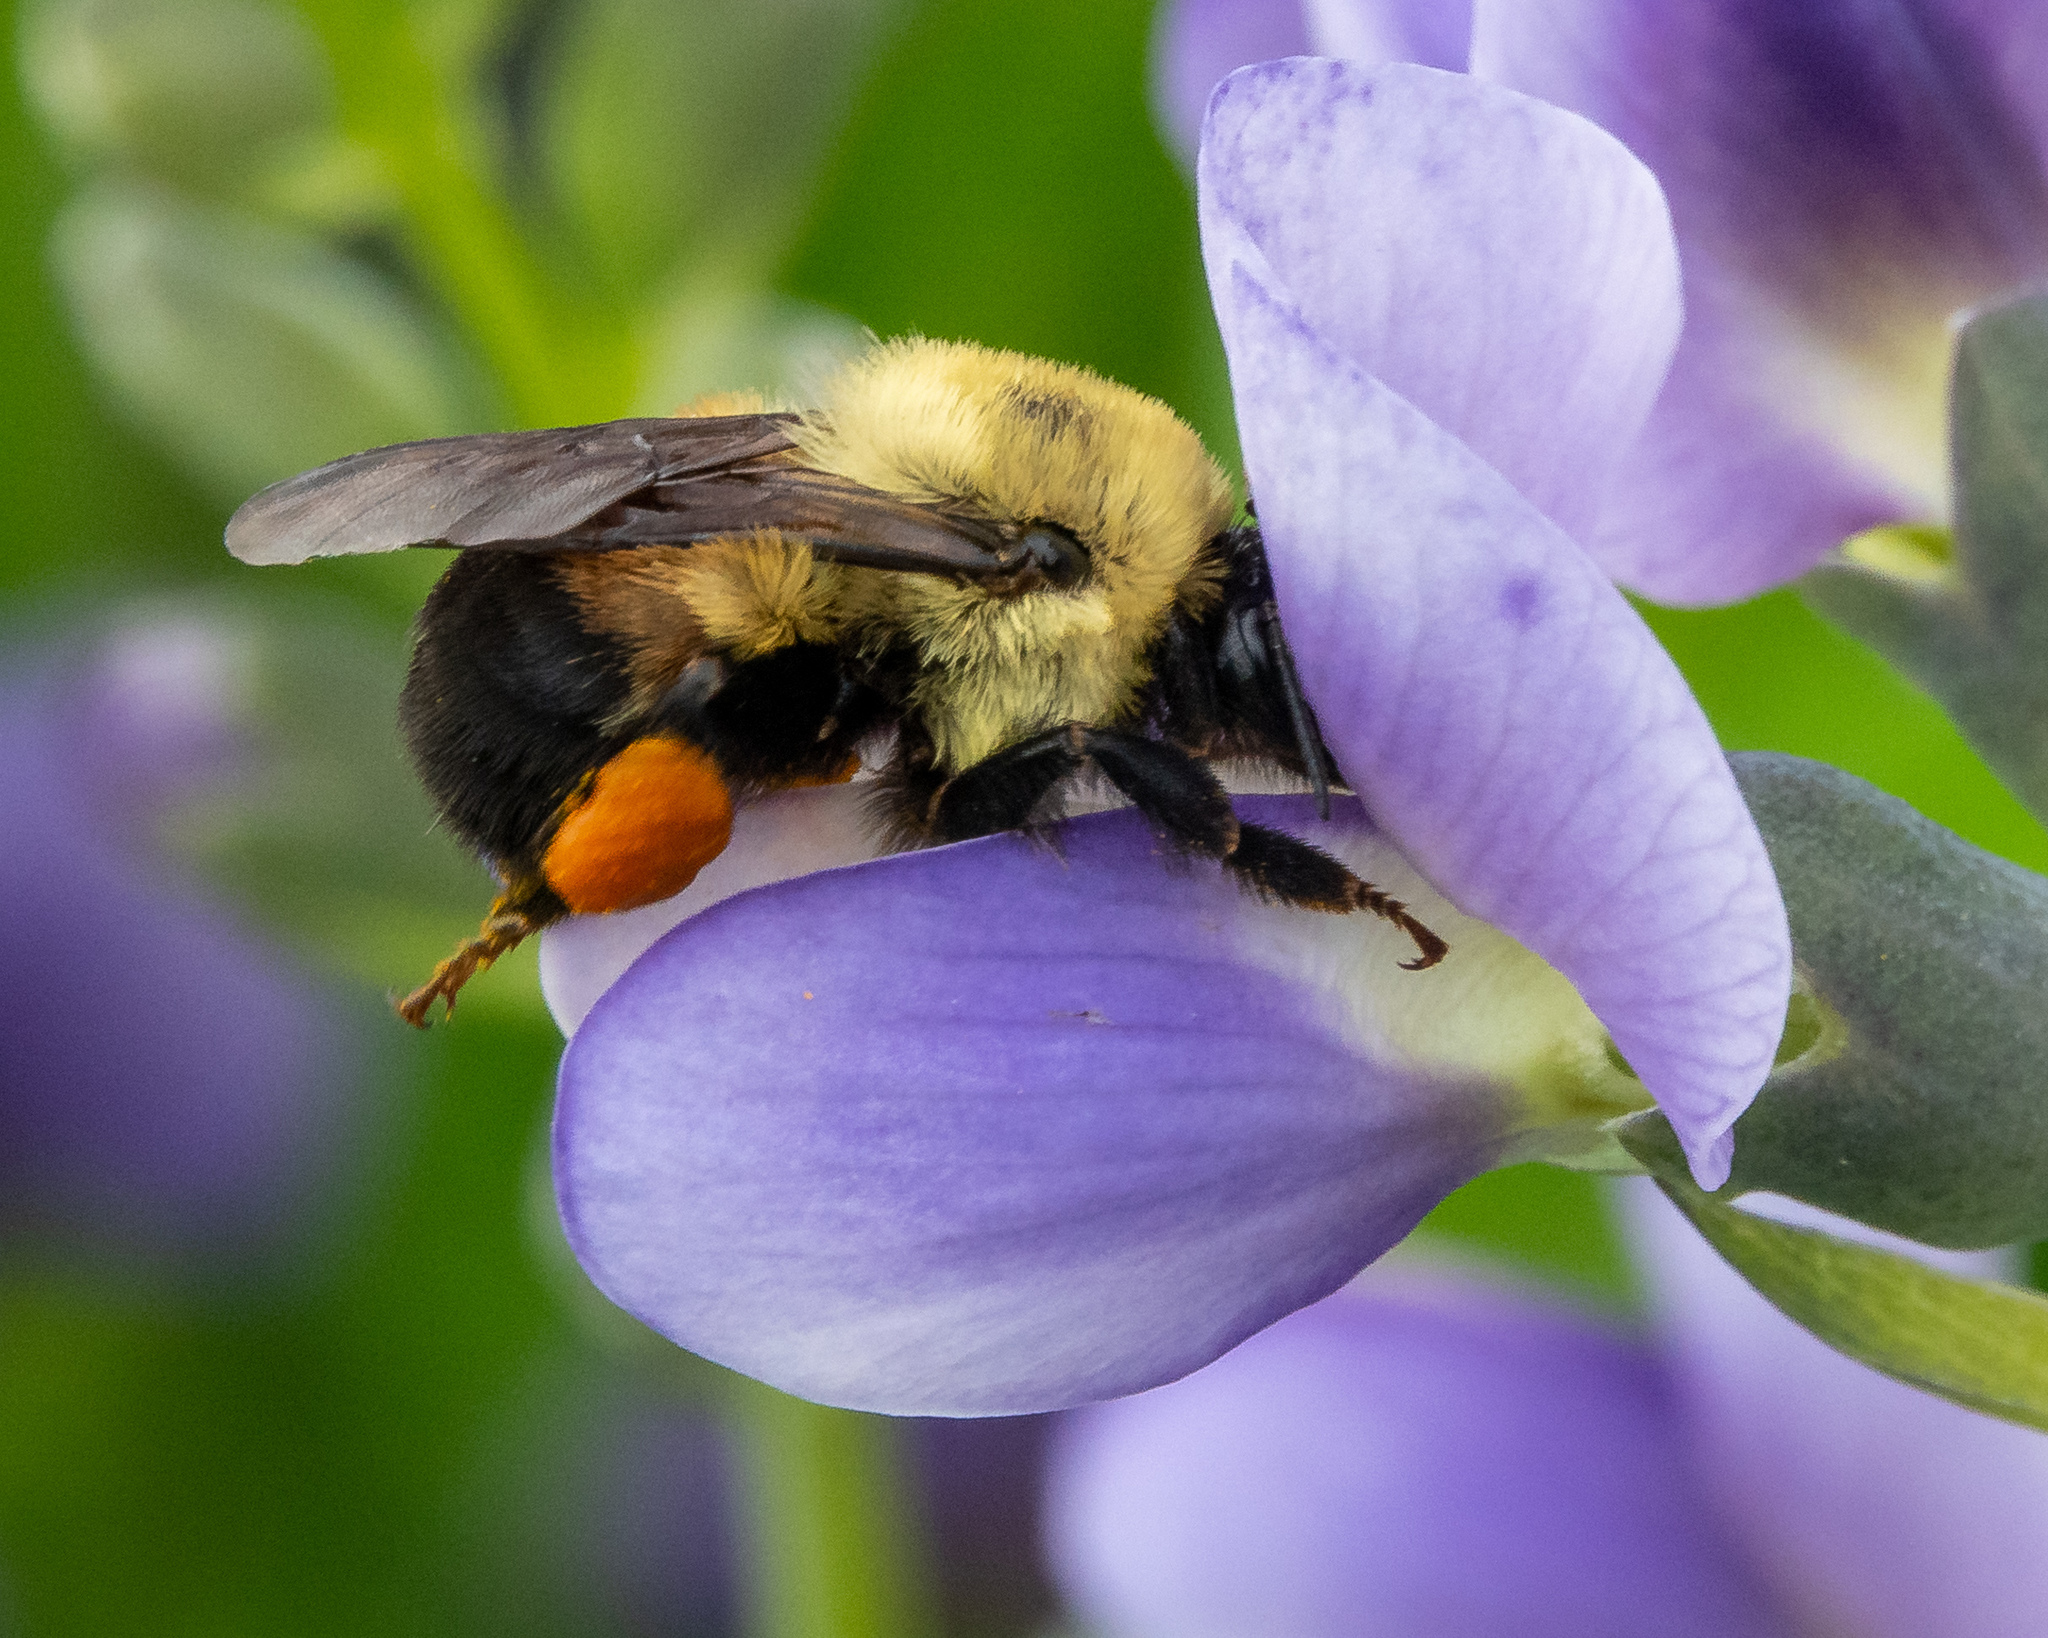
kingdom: Animalia
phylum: Arthropoda
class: Insecta
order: Hymenoptera
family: Apidae
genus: Bombus
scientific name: Bombus griseocollis
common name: Brown-belted bumble bee
